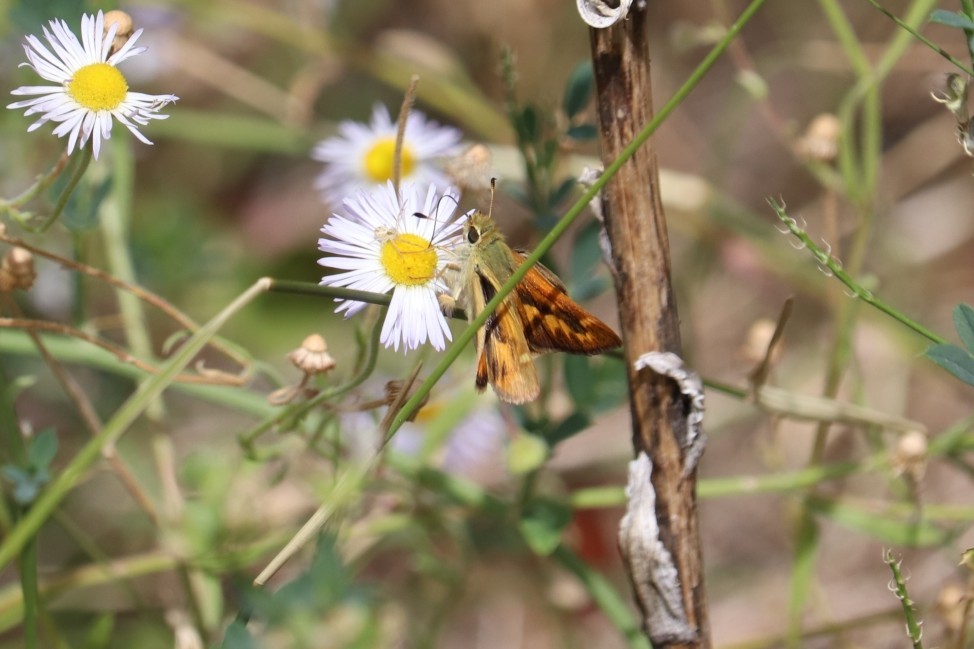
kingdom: Animalia
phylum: Arthropoda
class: Insecta
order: Lepidoptera
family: Hesperiidae
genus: Ochlodes
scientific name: Ochlodes sylvanoides
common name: Woodland skipper
